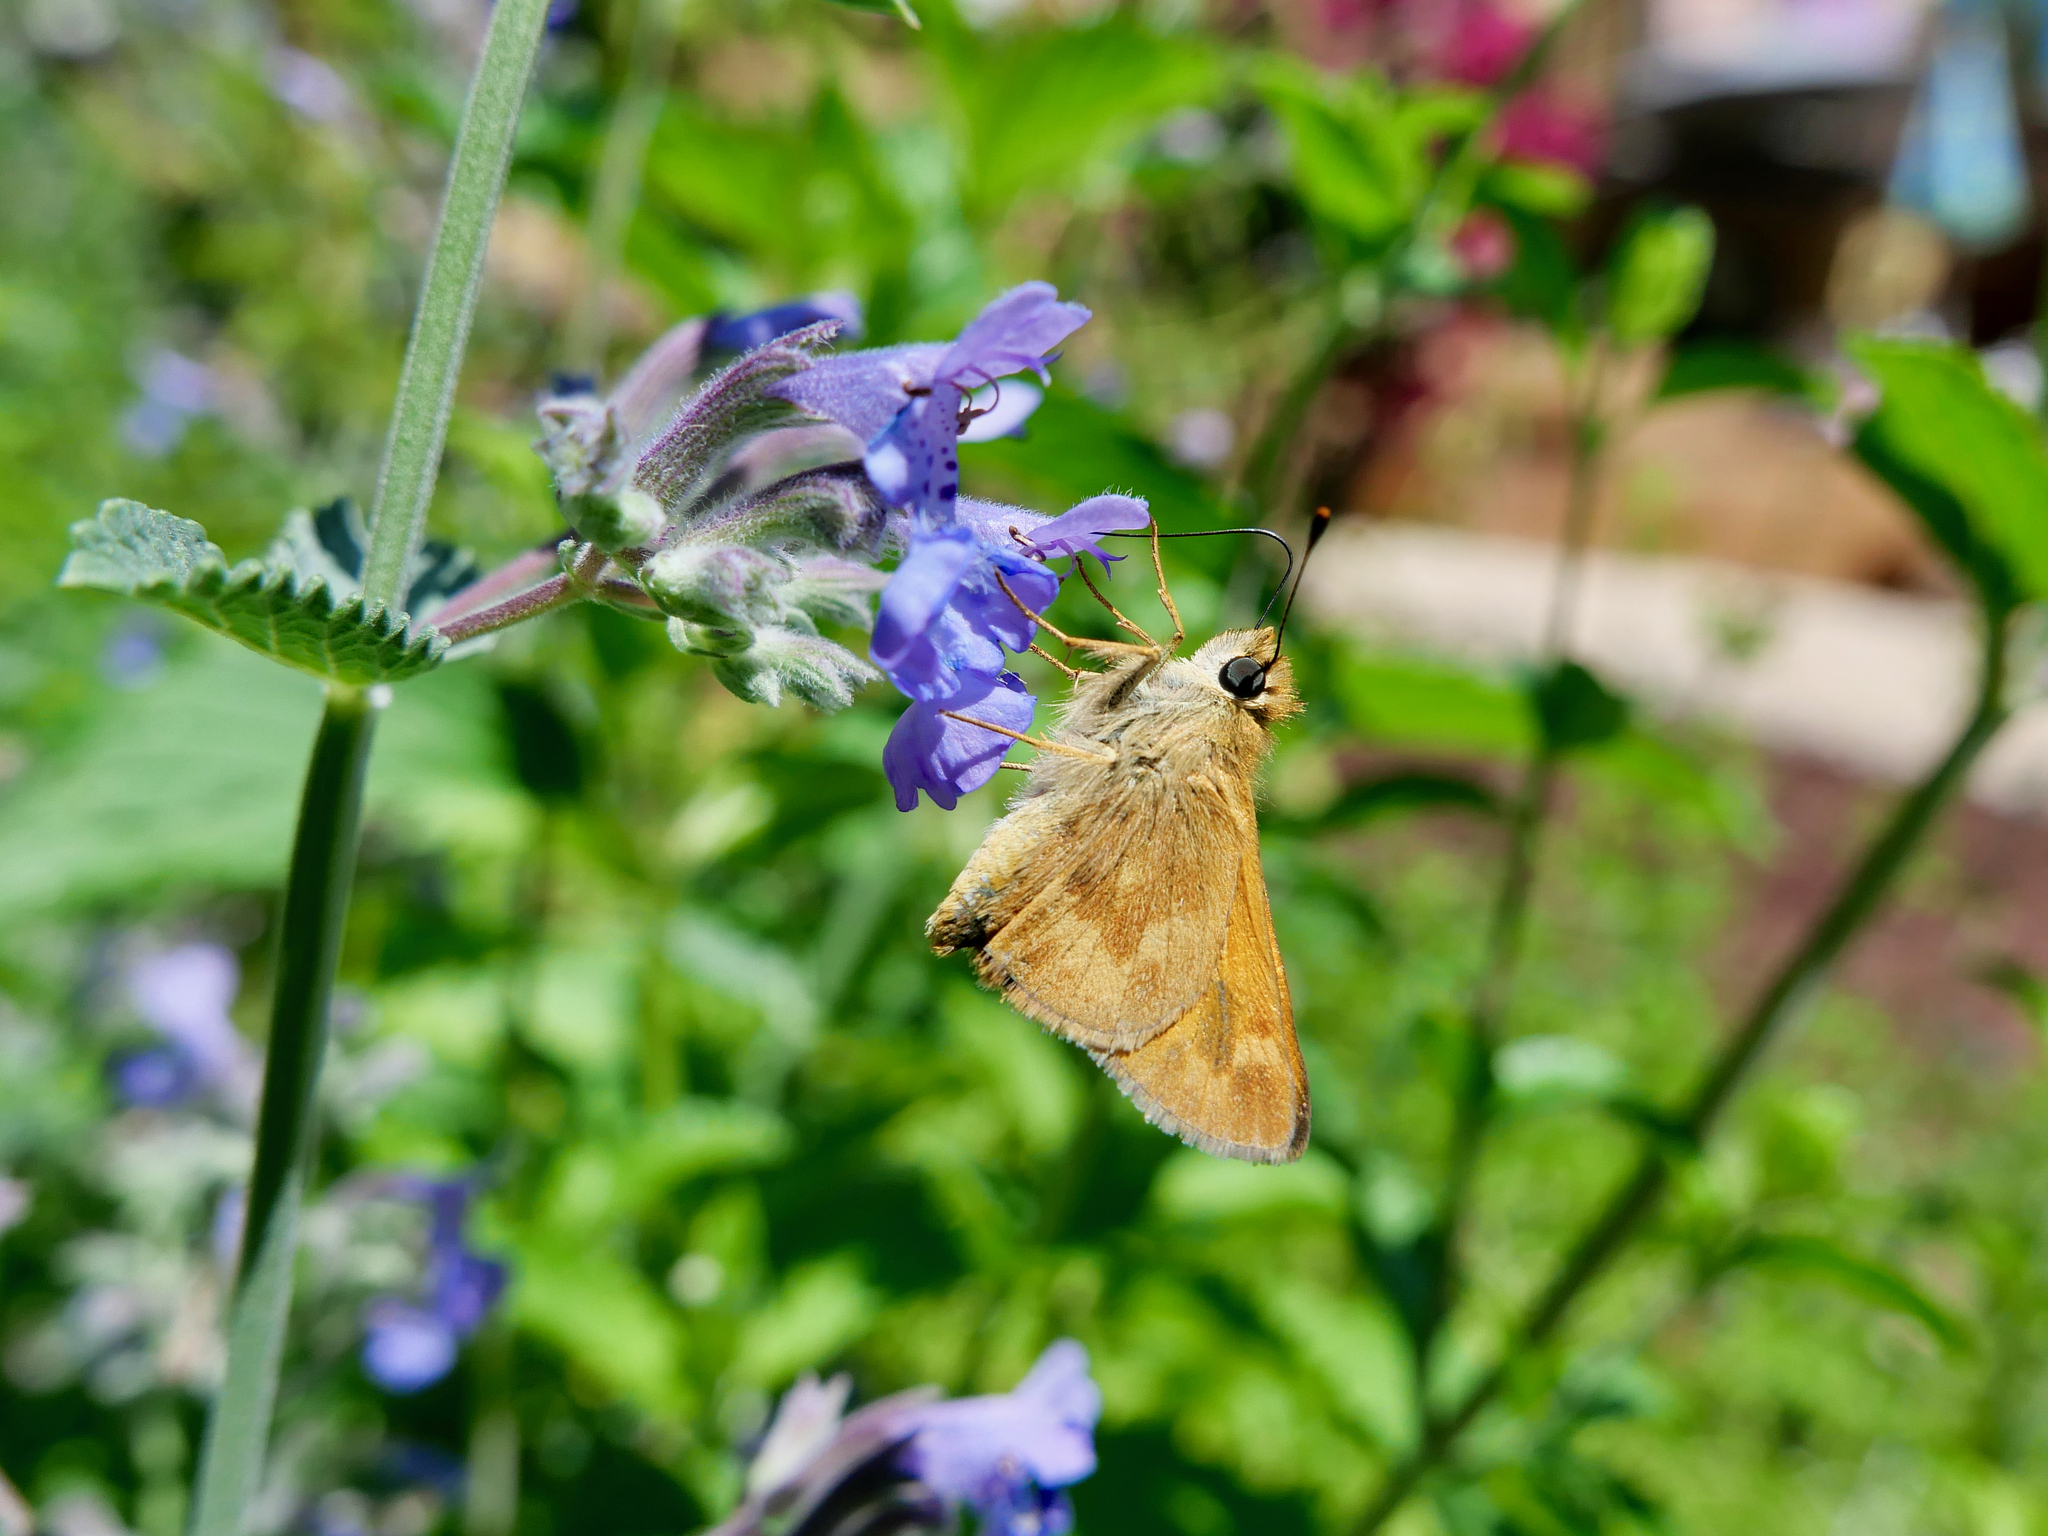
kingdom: Animalia
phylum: Arthropoda
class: Insecta
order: Lepidoptera
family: Hesperiidae
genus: Ochlodes
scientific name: Ochlodes sylvanoides
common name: Woodland skipper
